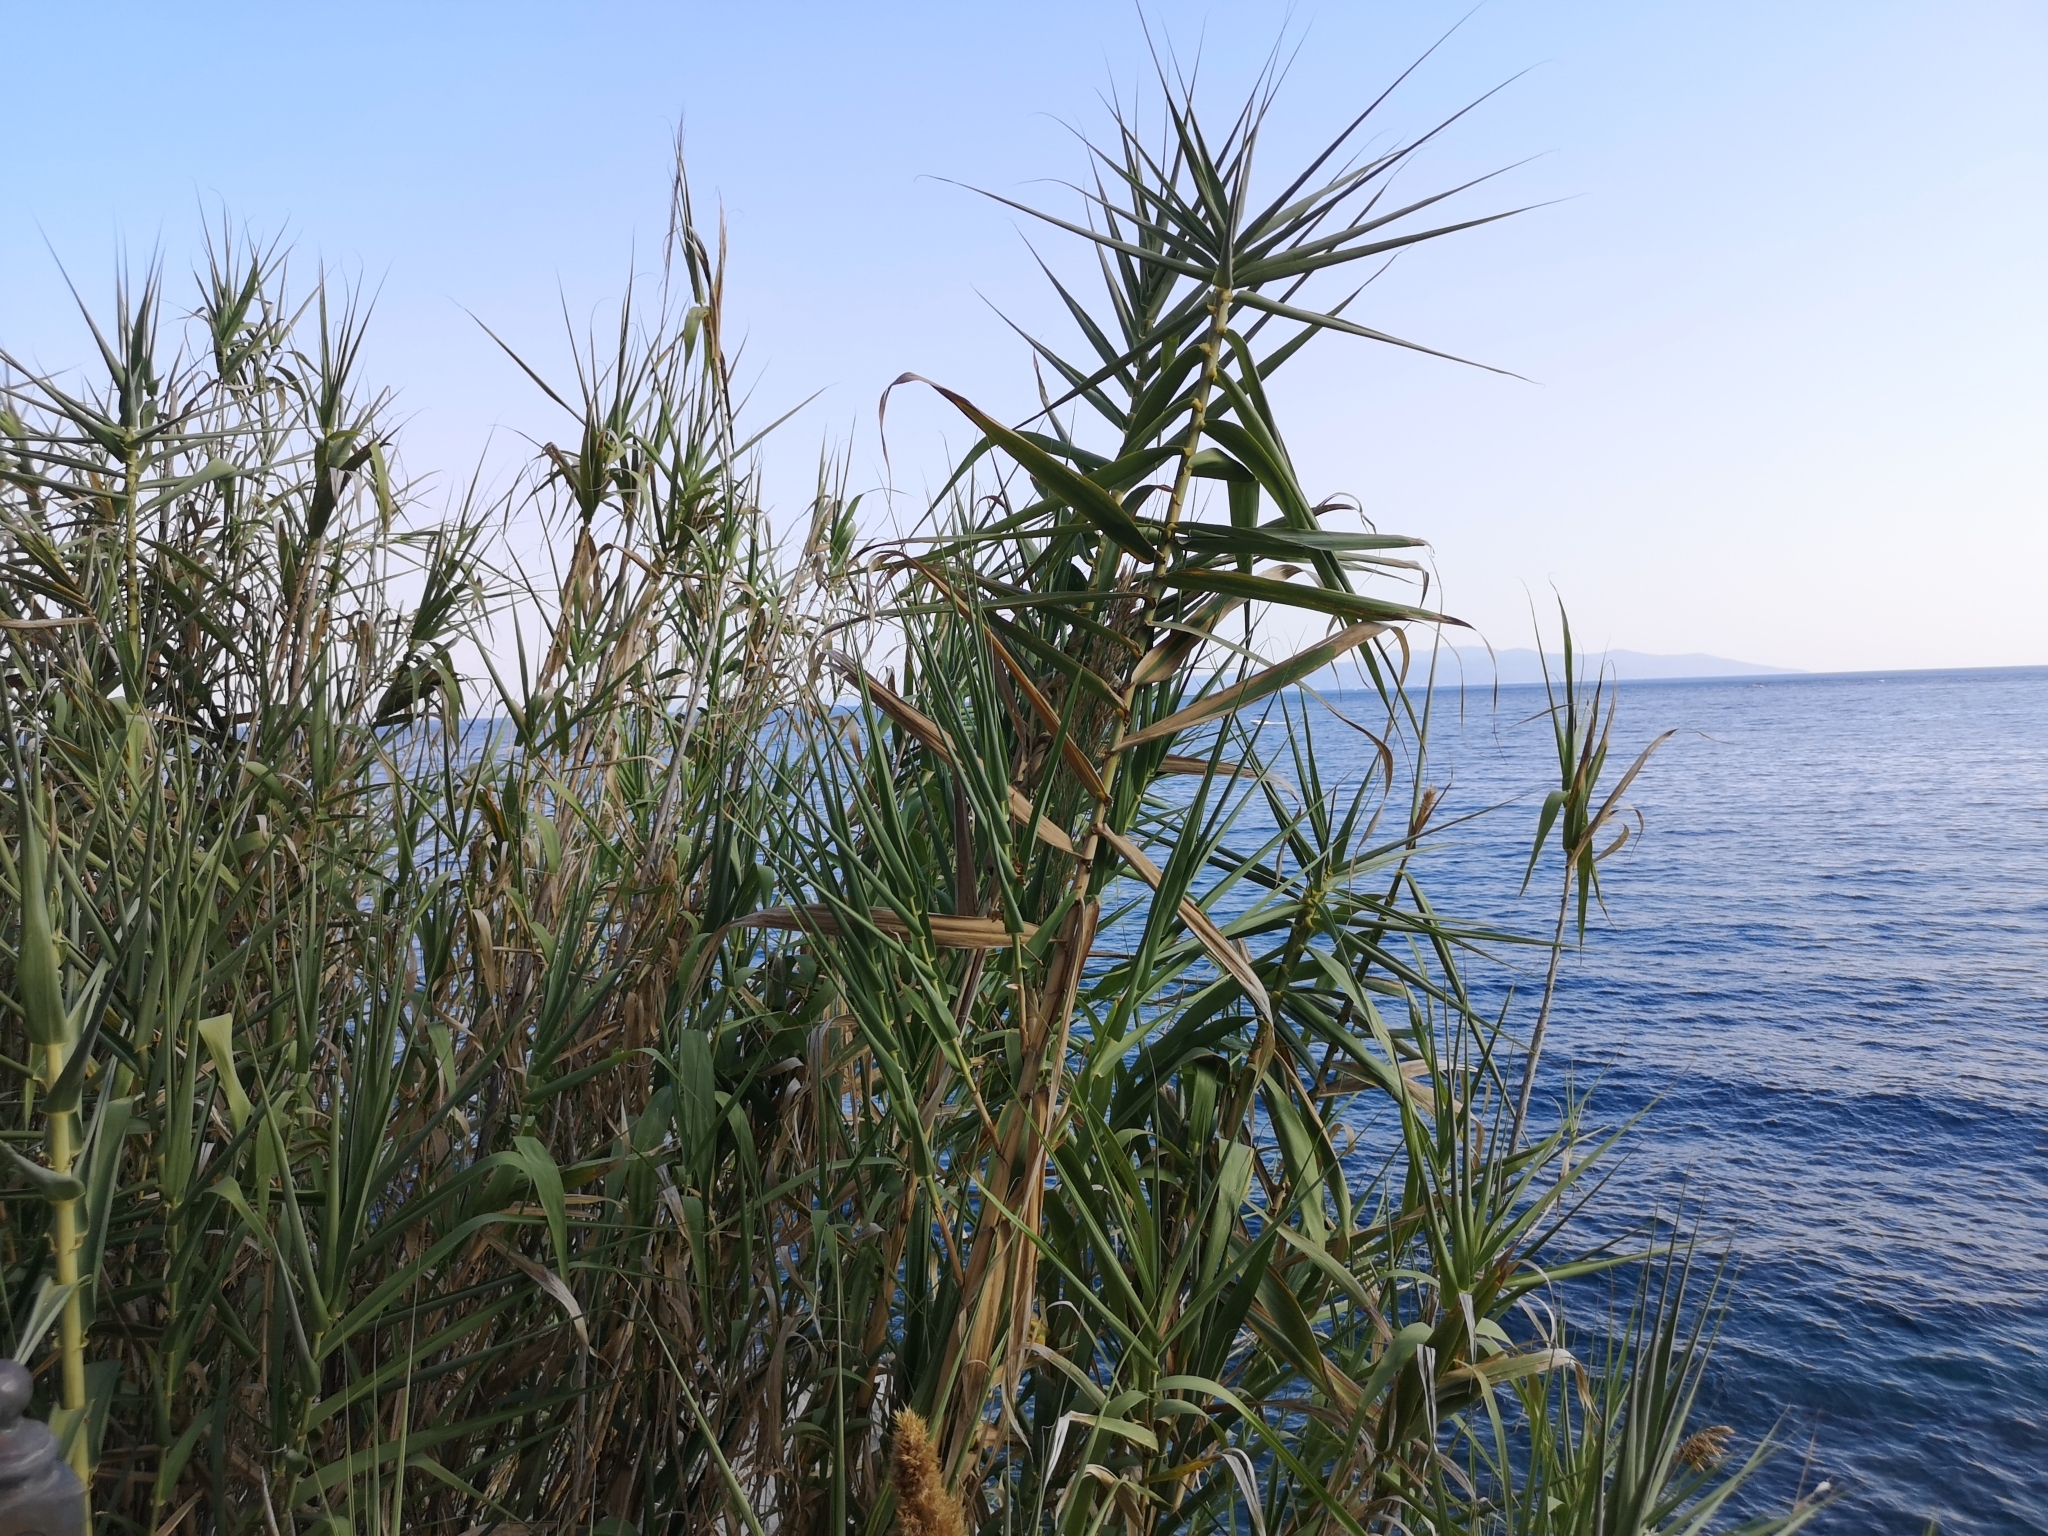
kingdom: Plantae
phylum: Tracheophyta
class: Liliopsida
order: Poales
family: Poaceae
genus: Arundo
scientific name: Arundo donax
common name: Giant reed
